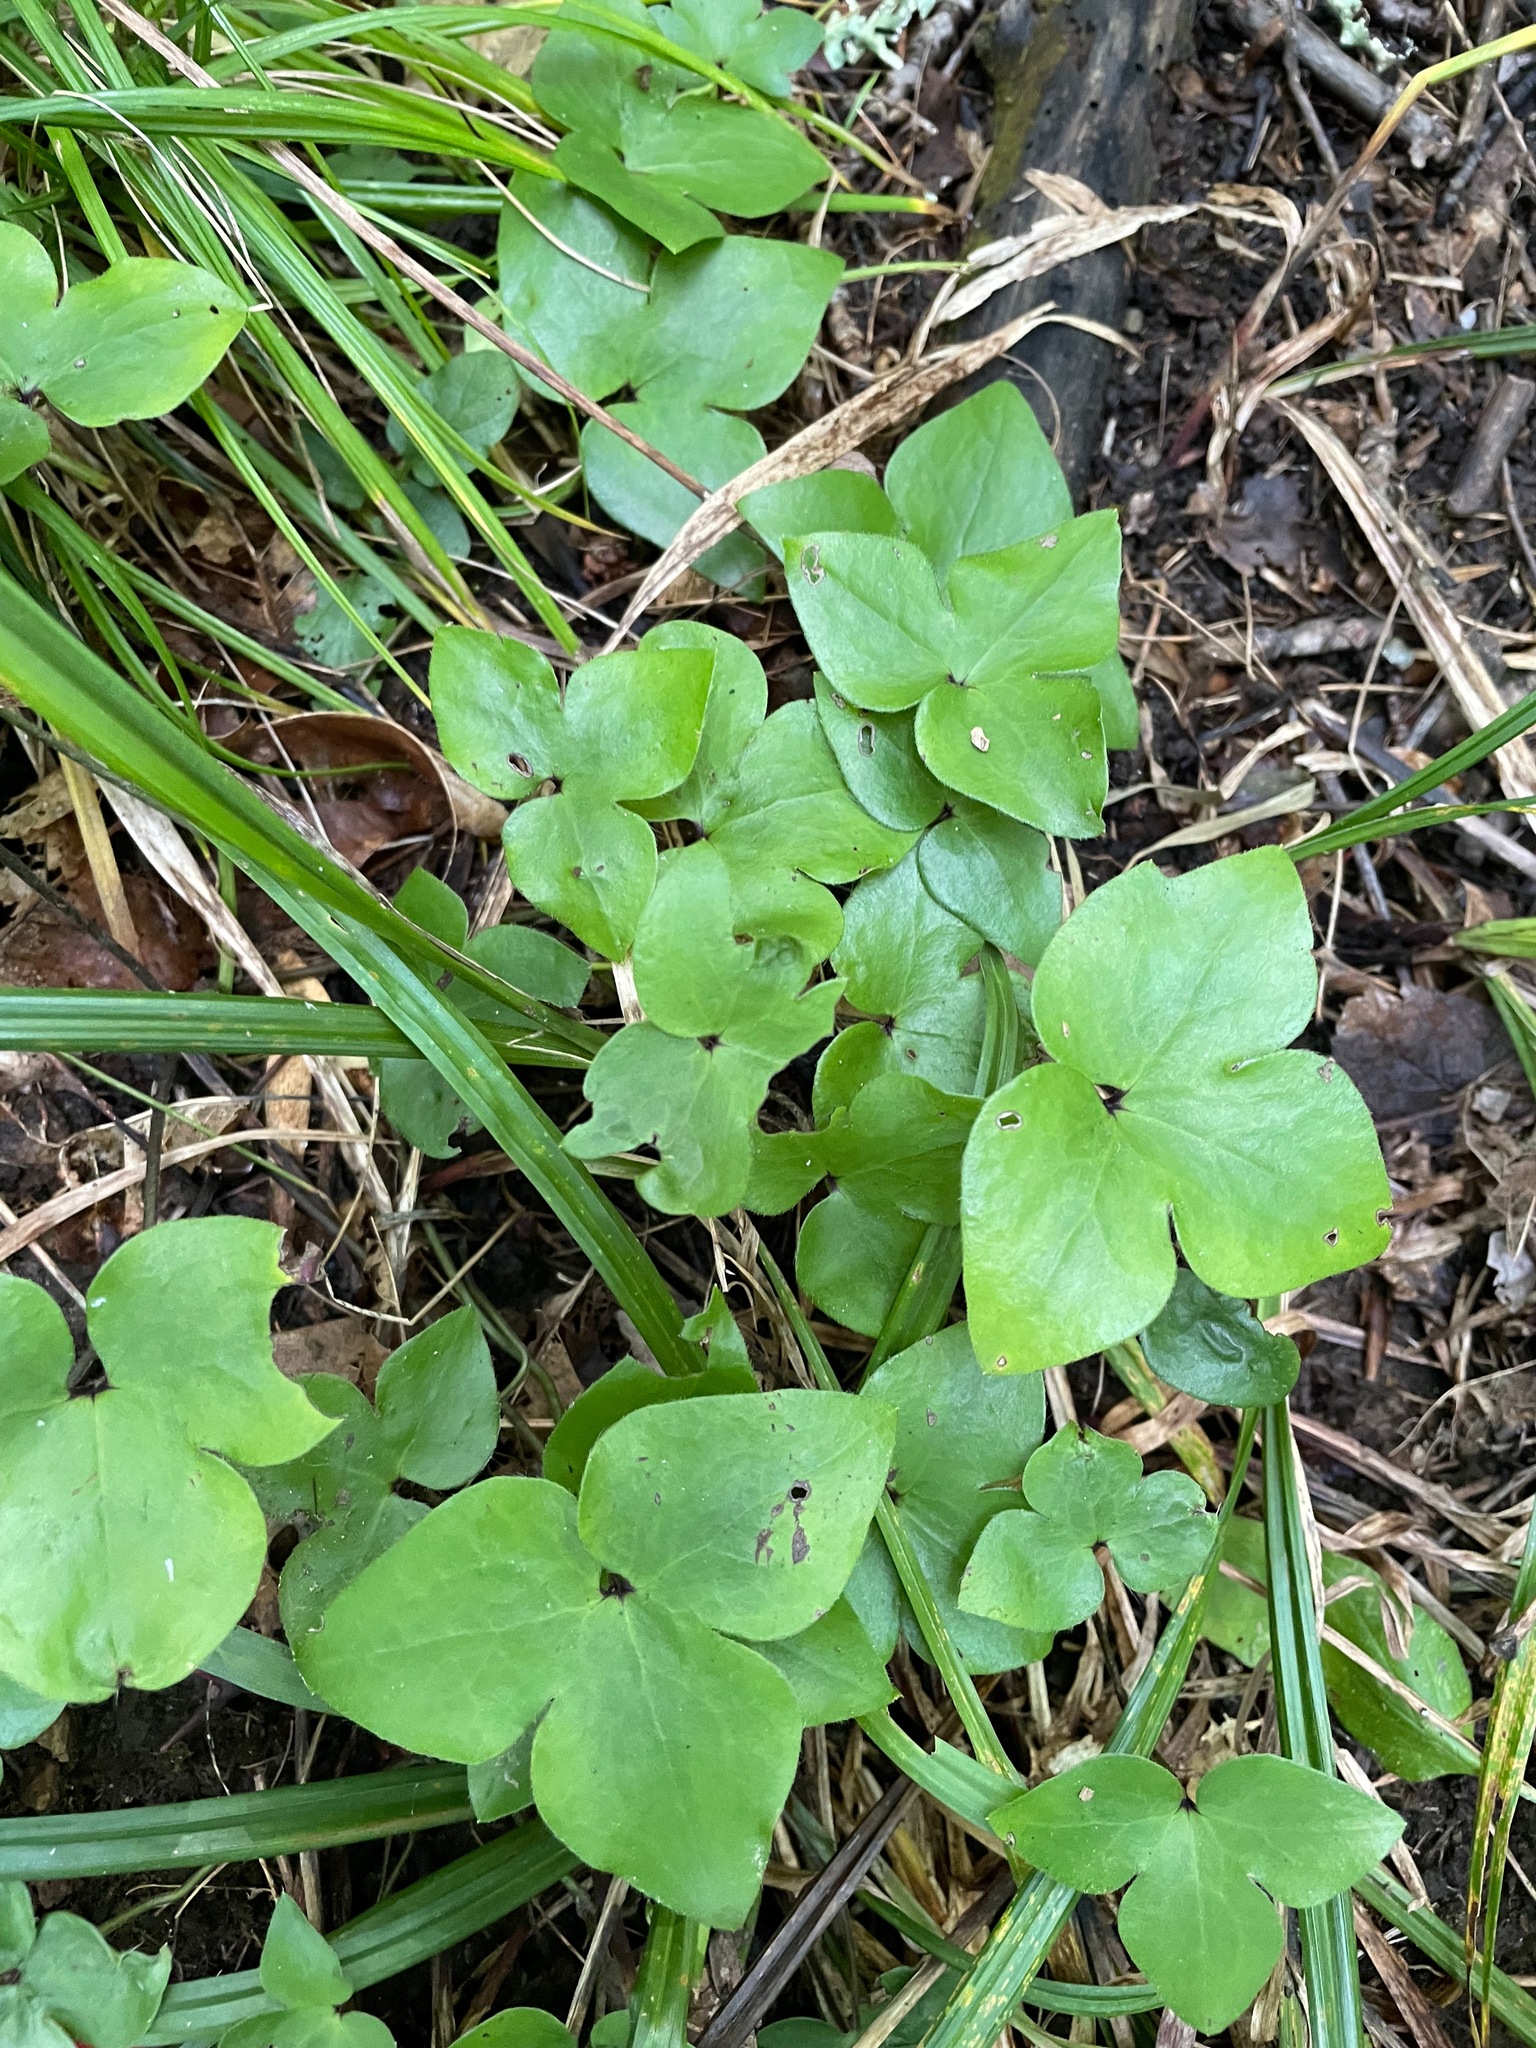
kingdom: Plantae
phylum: Tracheophyta
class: Magnoliopsida
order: Ranunculales
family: Ranunculaceae
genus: Hepatica
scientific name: Hepatica acutiloba
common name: Sharp-lobed hepatica
